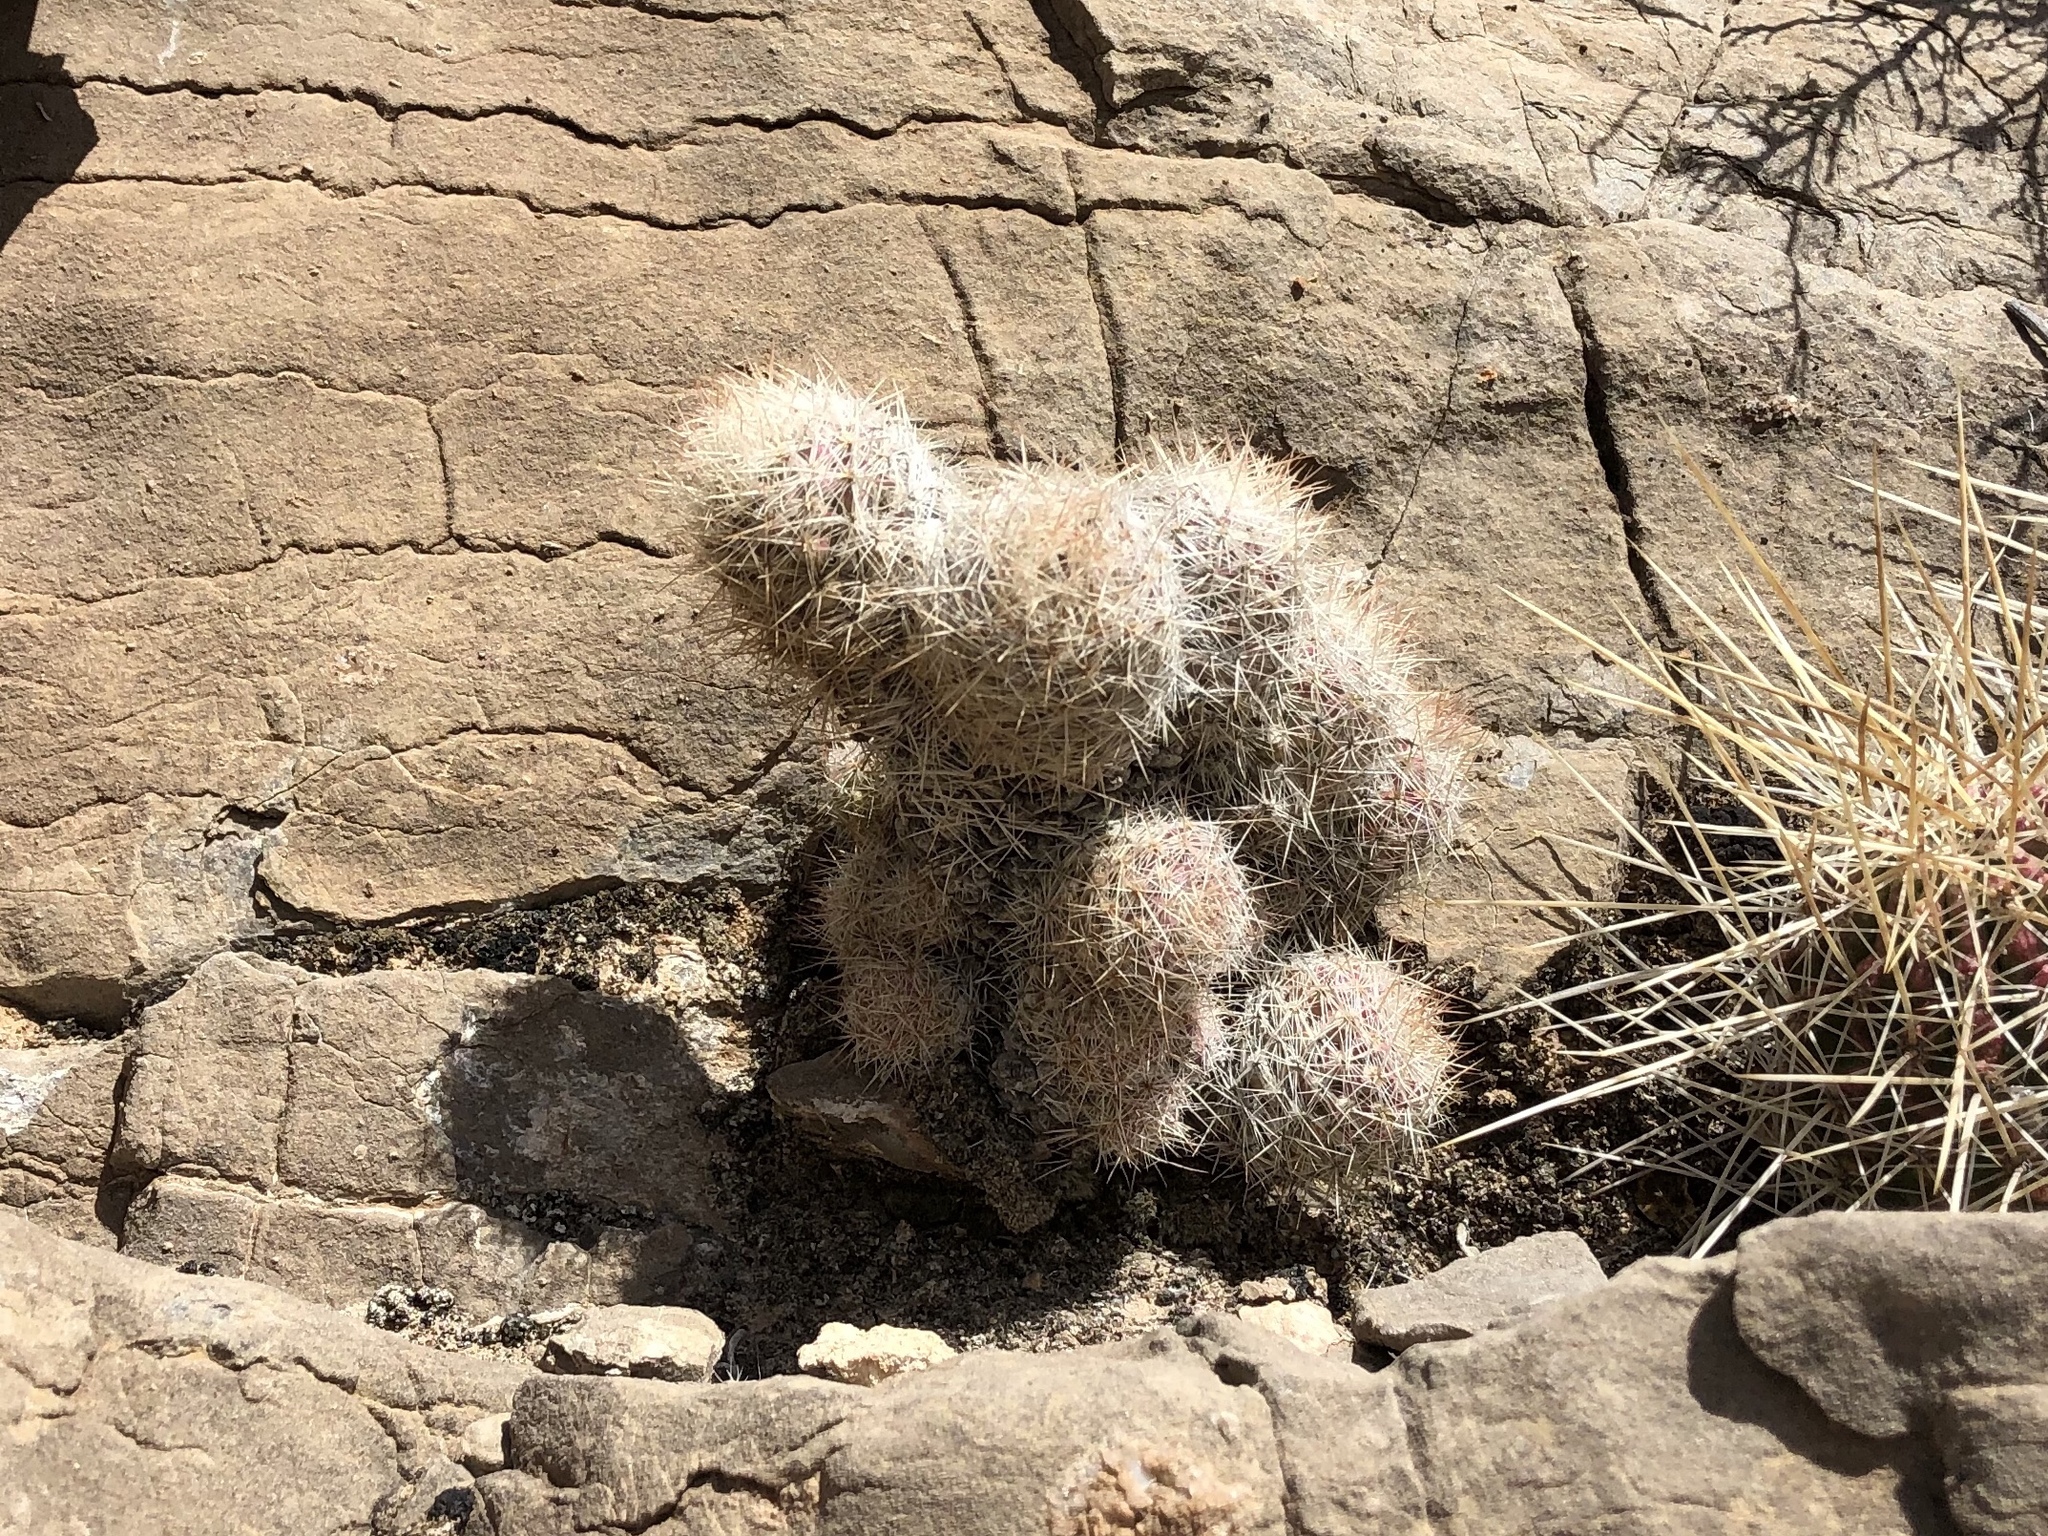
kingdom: Plantae
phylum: Tracheophyta
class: Magnoliopsida
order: Caryophyllales
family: Cactaceae
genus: Pelecyphora
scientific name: Pelecyphora tuberculosa
